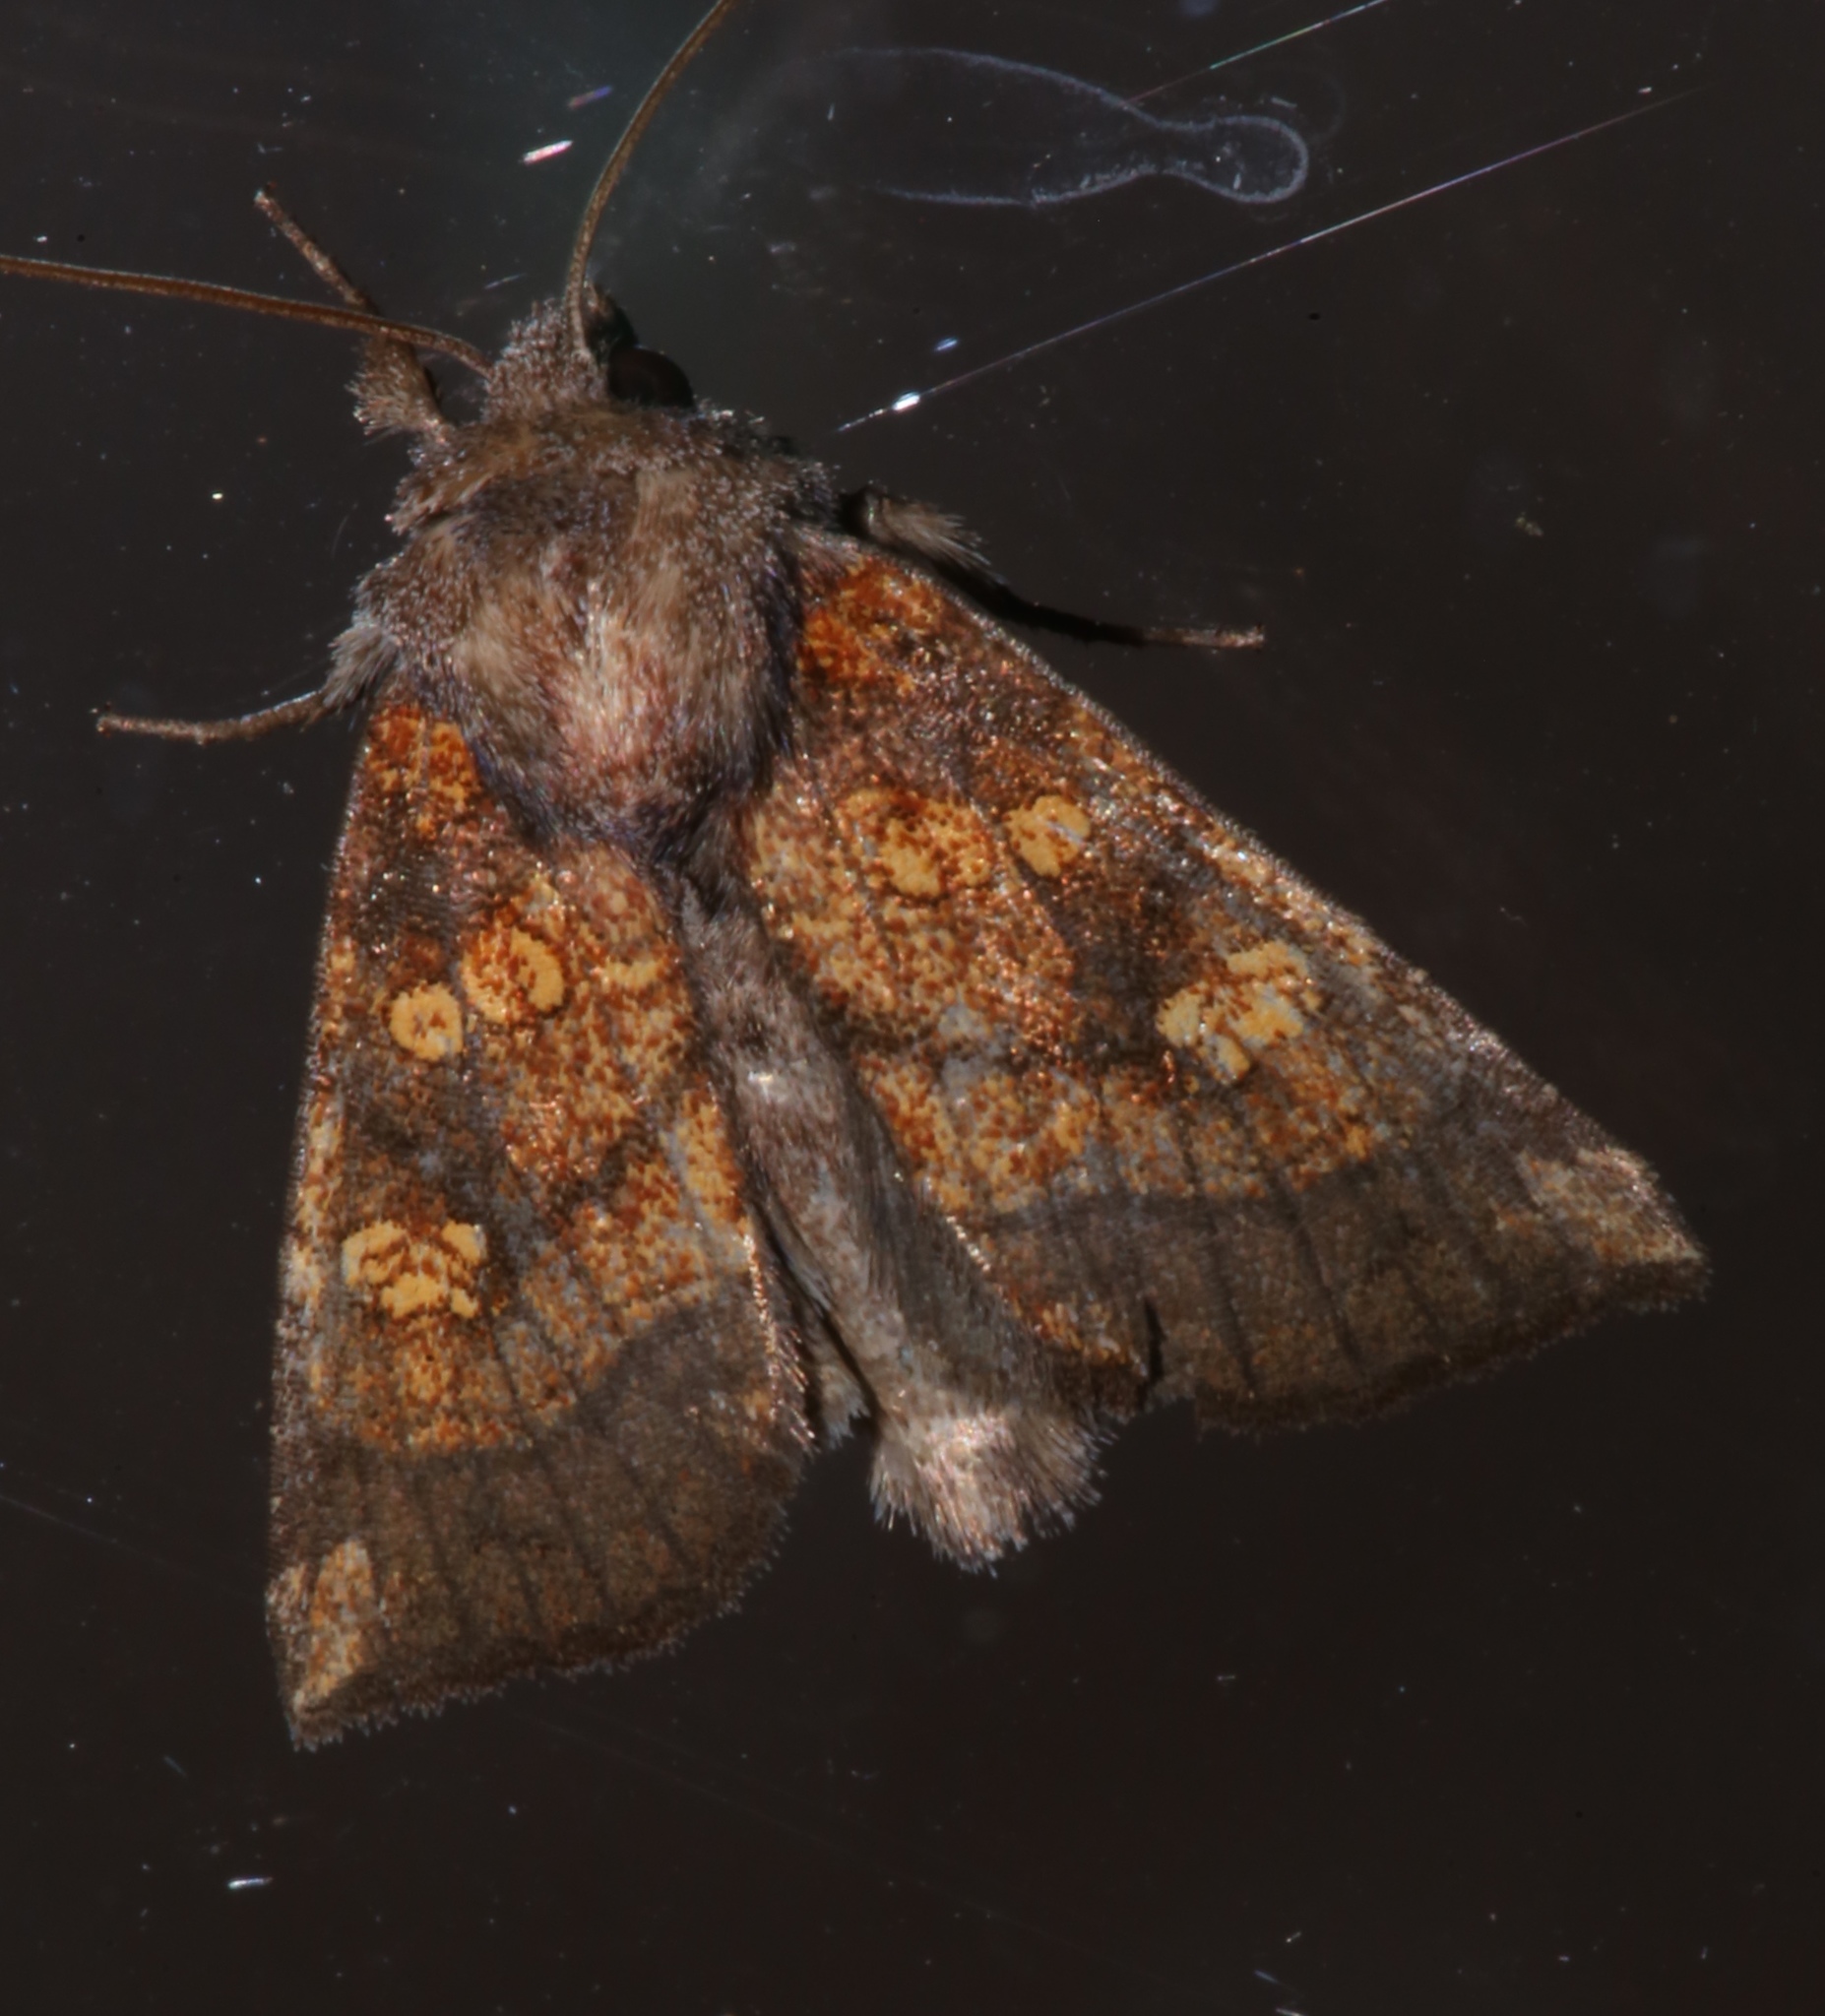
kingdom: Animalia
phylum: Arthropoda
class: Insecta
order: Lepidoptera
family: Noctuidae
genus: Papaipema
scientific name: Papaipema impecuniosa
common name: Aster borer moth
